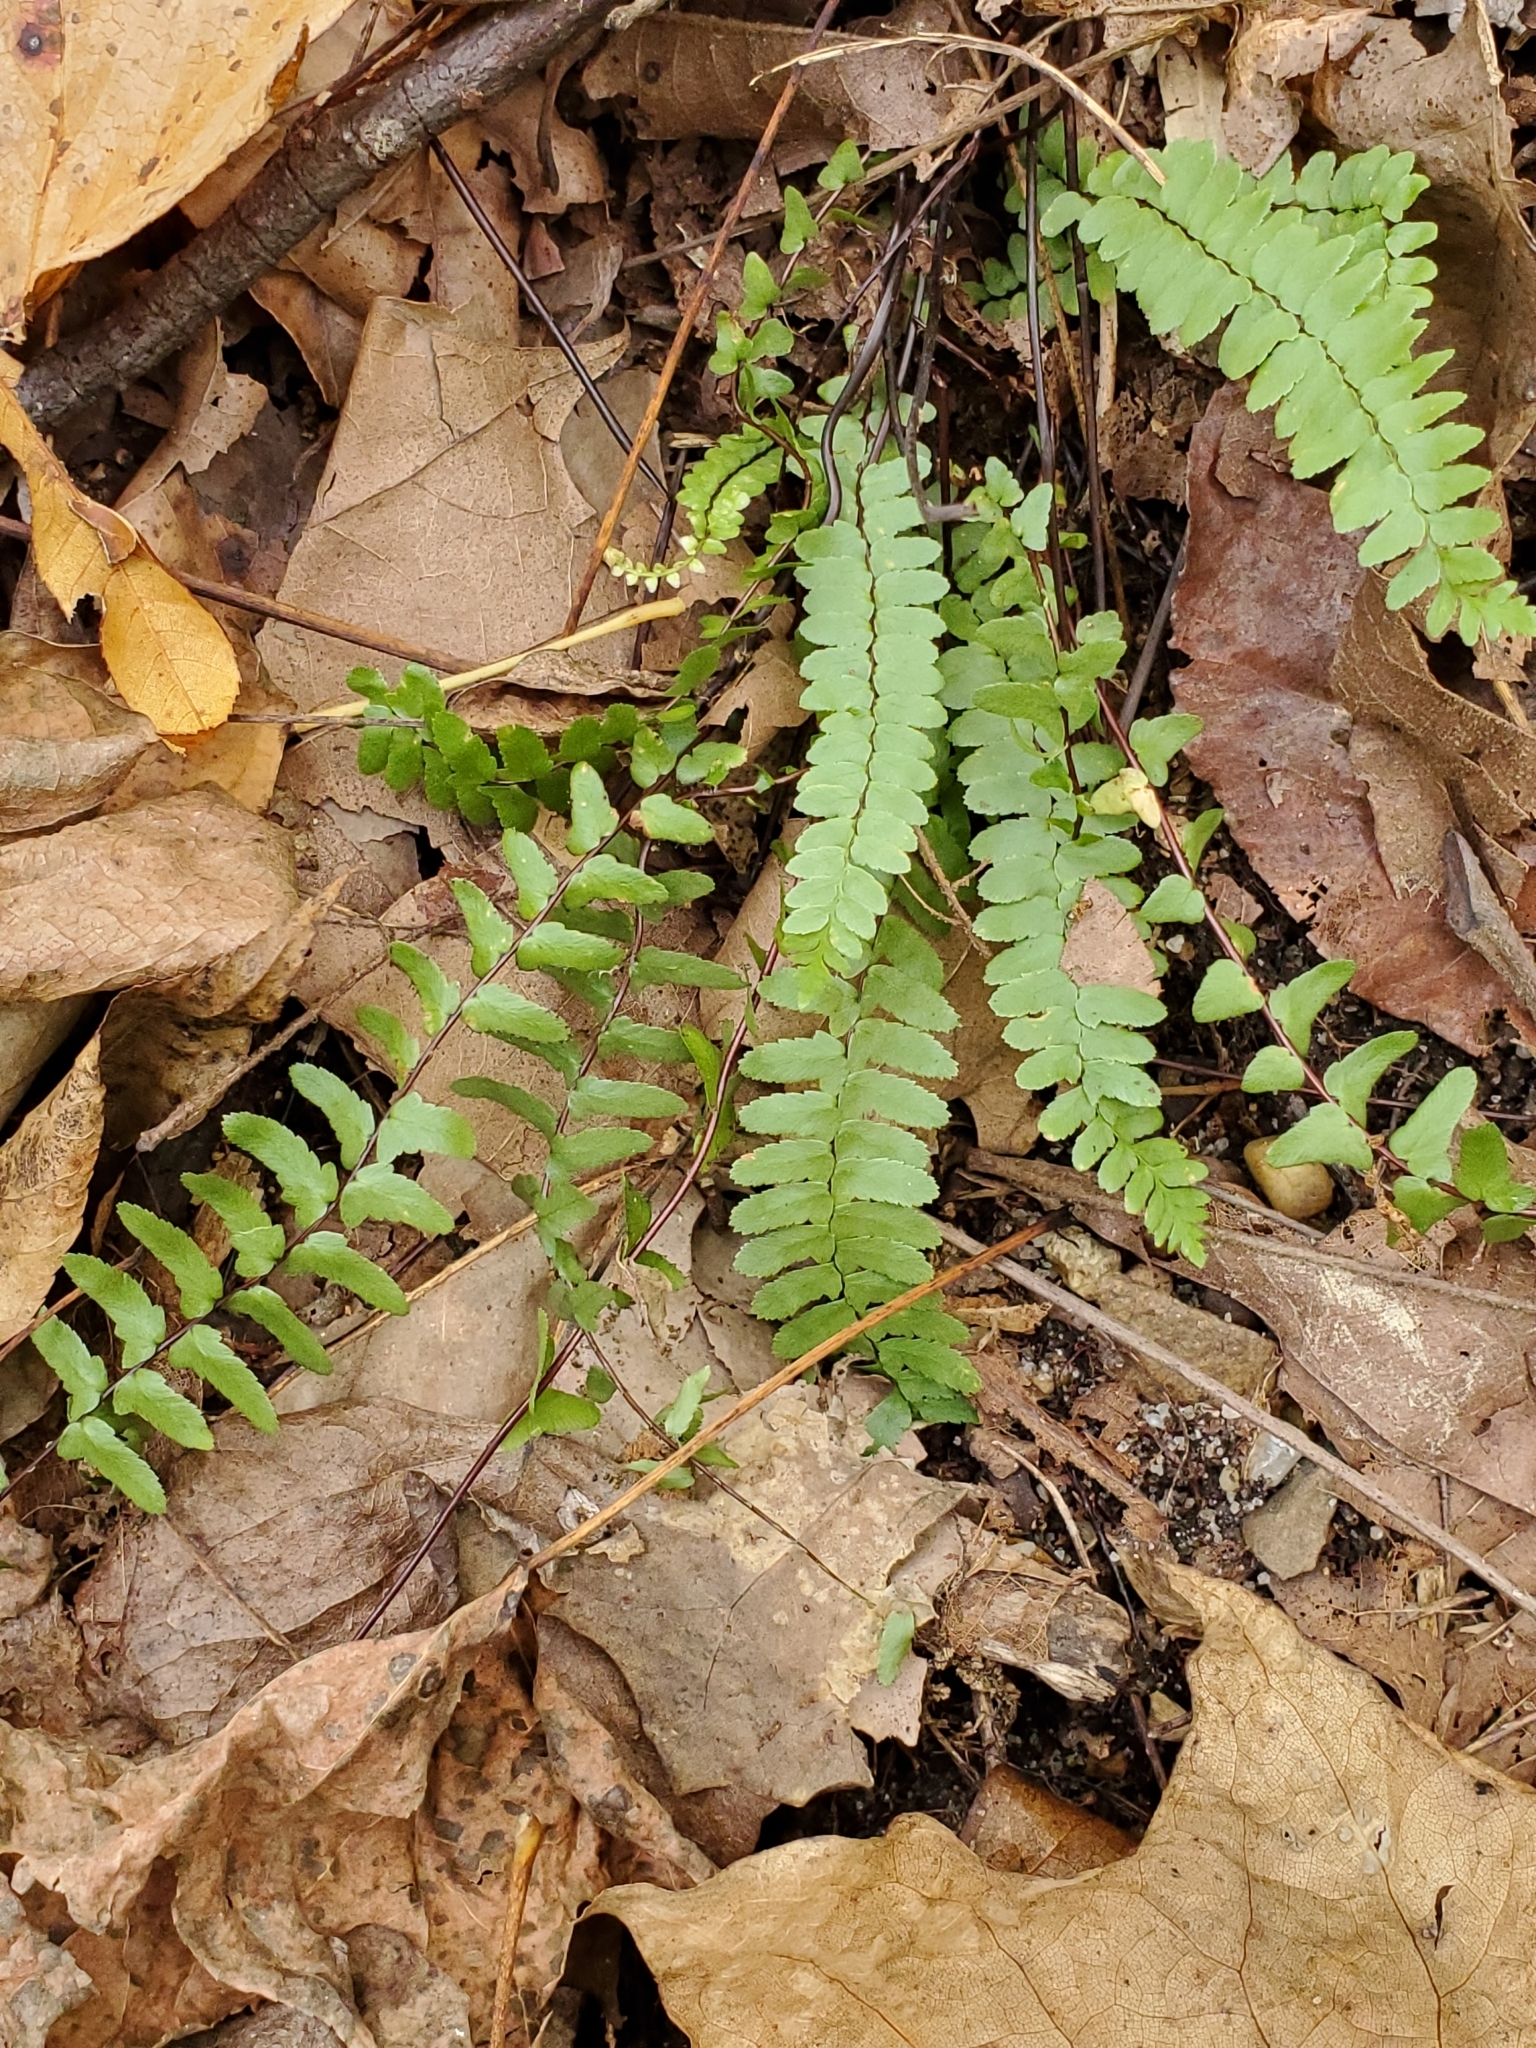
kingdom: Plantae
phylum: Tracheophyta
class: Polypodiopsida
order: Polypodiales
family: Aspleniaceae
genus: Asplenium
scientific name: Asplenium platyneuron
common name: Ebony spleenwort
